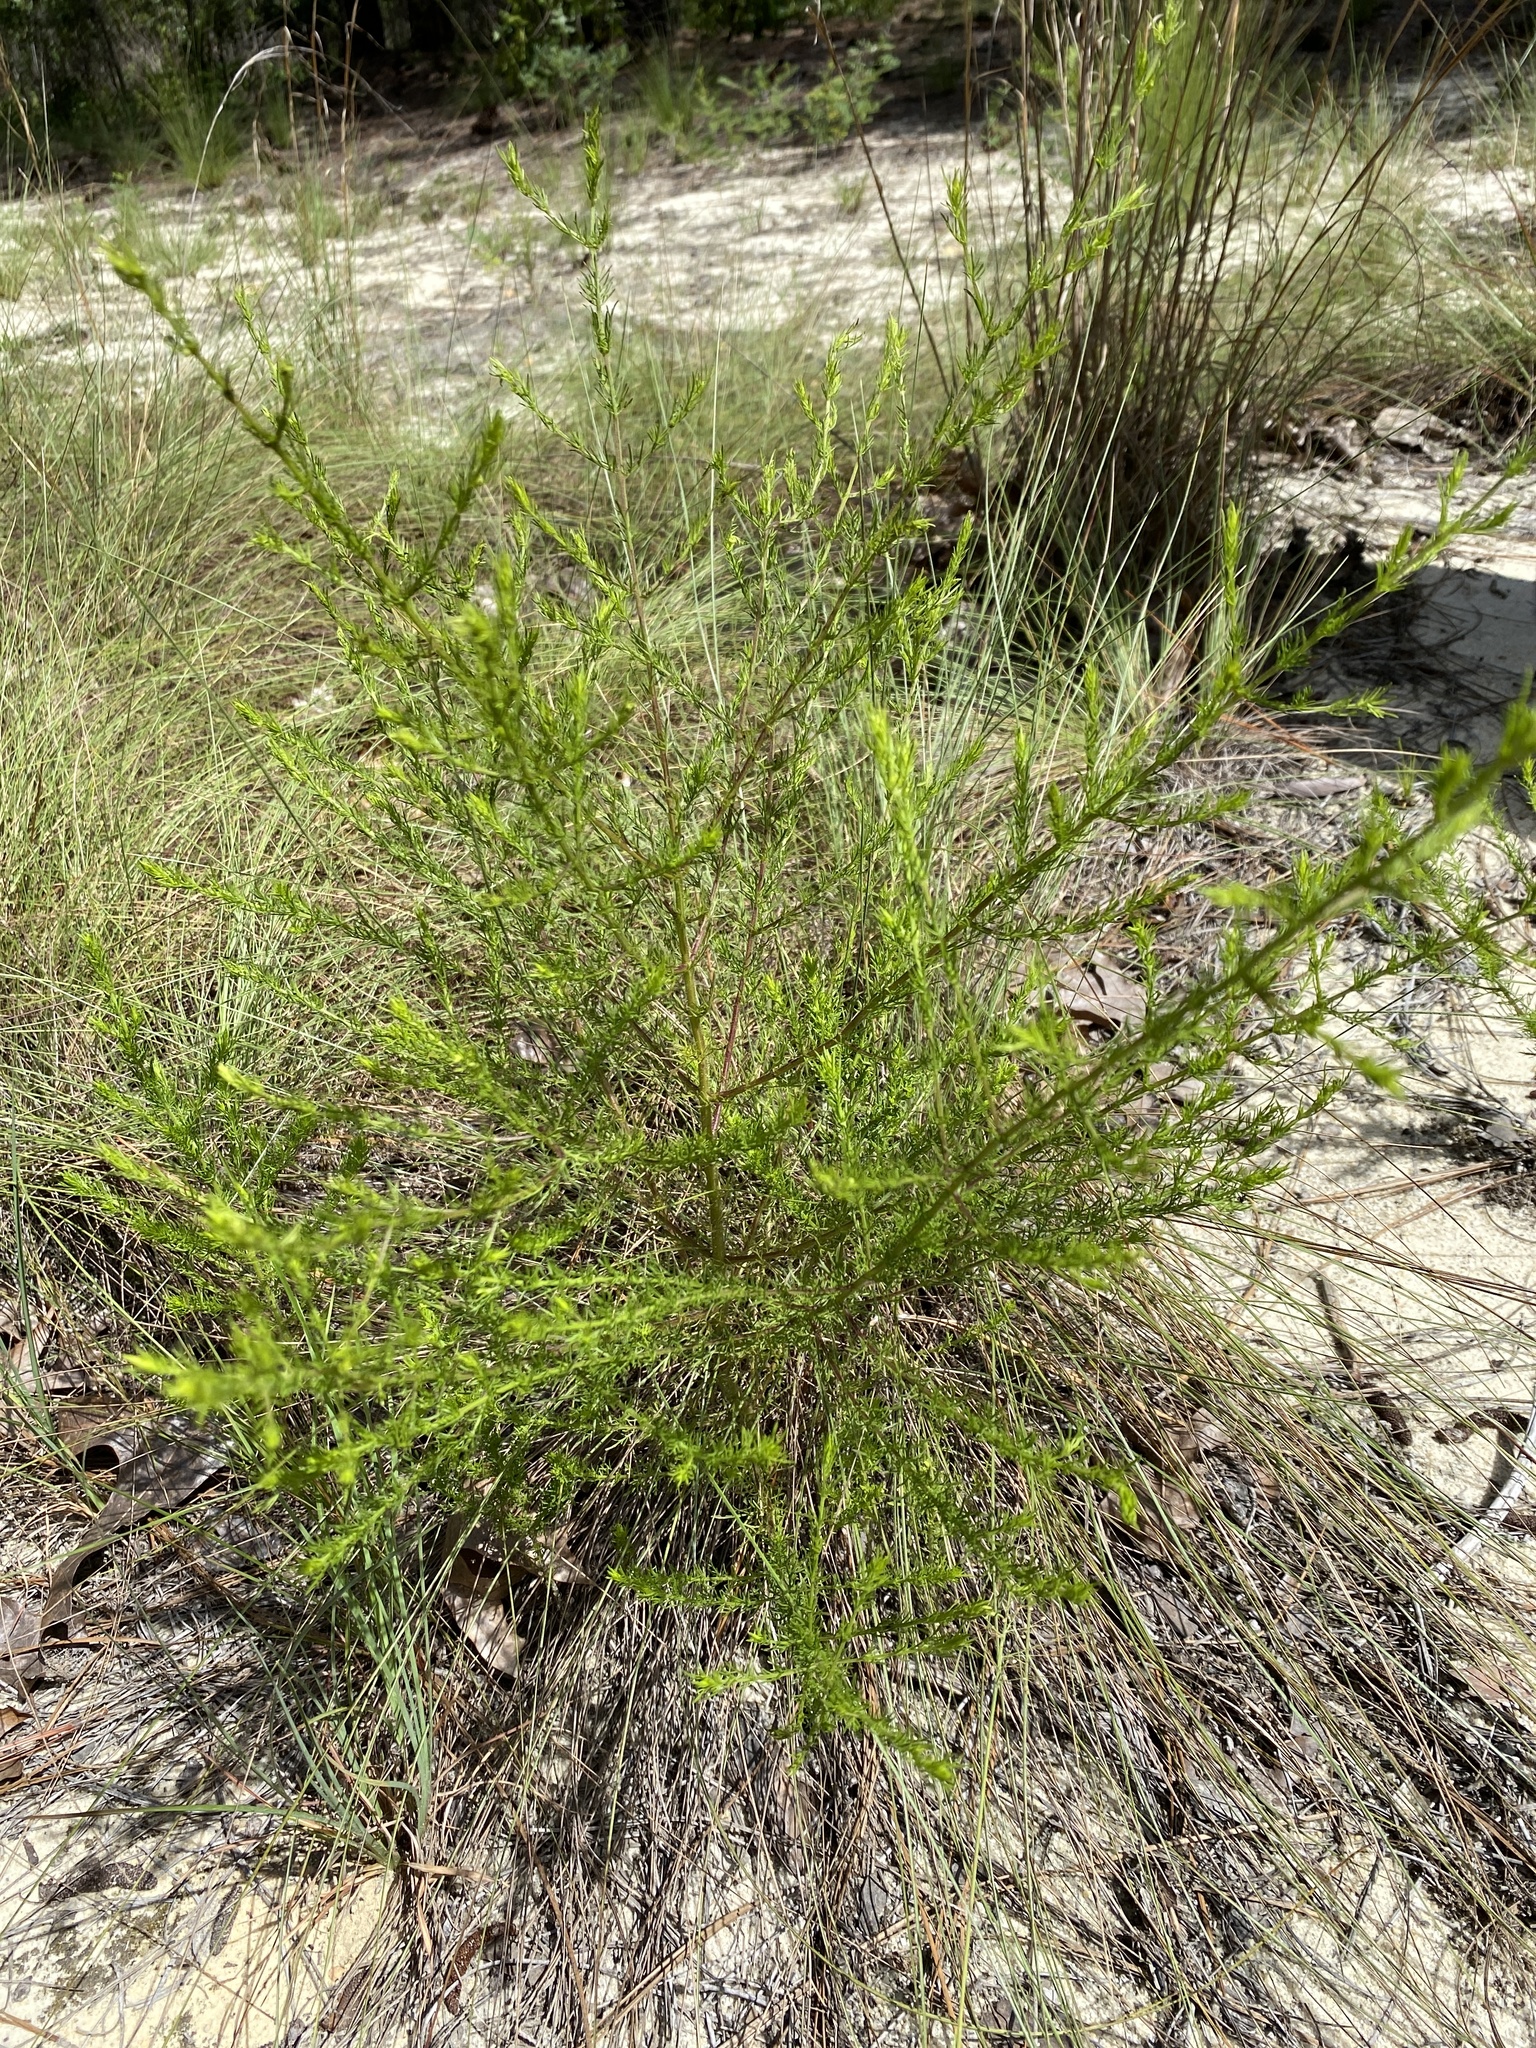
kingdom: Plantae
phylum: Tracheophyta
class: Magnoliopsida
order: Lamiales
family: Orobanchaceae
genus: Seymeria
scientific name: Seymeria cassioides
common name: Yaupon black-senna
